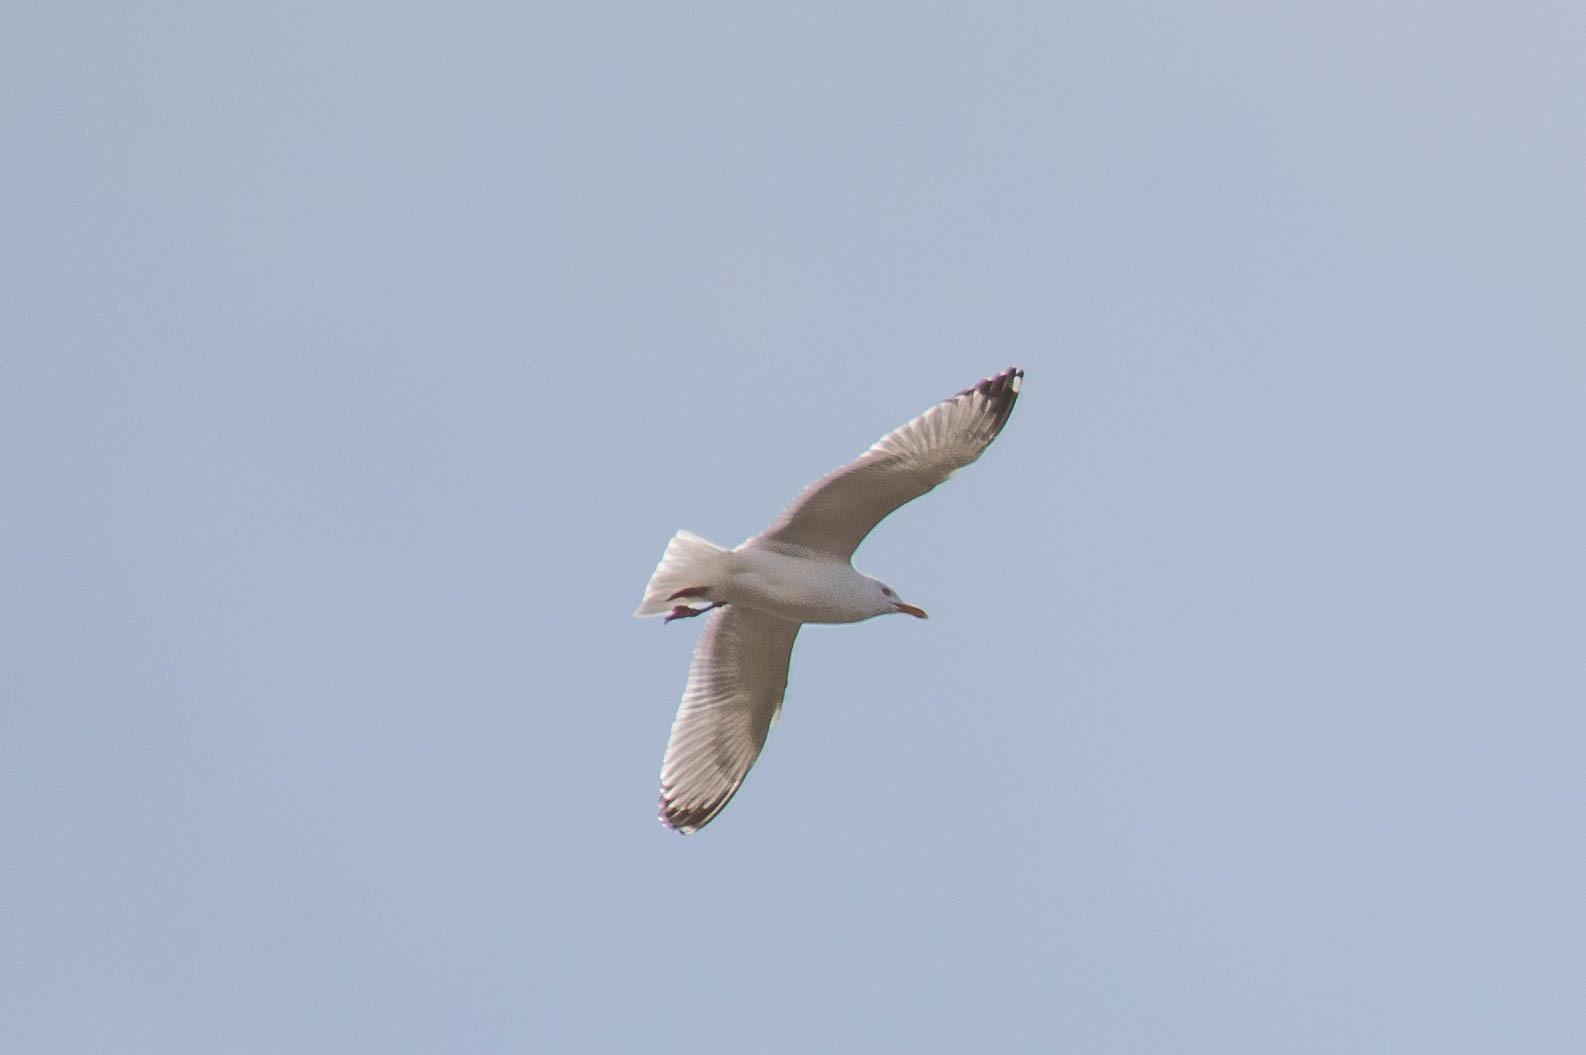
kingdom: Animalia
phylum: Chordata
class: Aves
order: Charadriiformes
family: Laridae
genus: Larus
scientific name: Larus argentatus
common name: Herring gull
